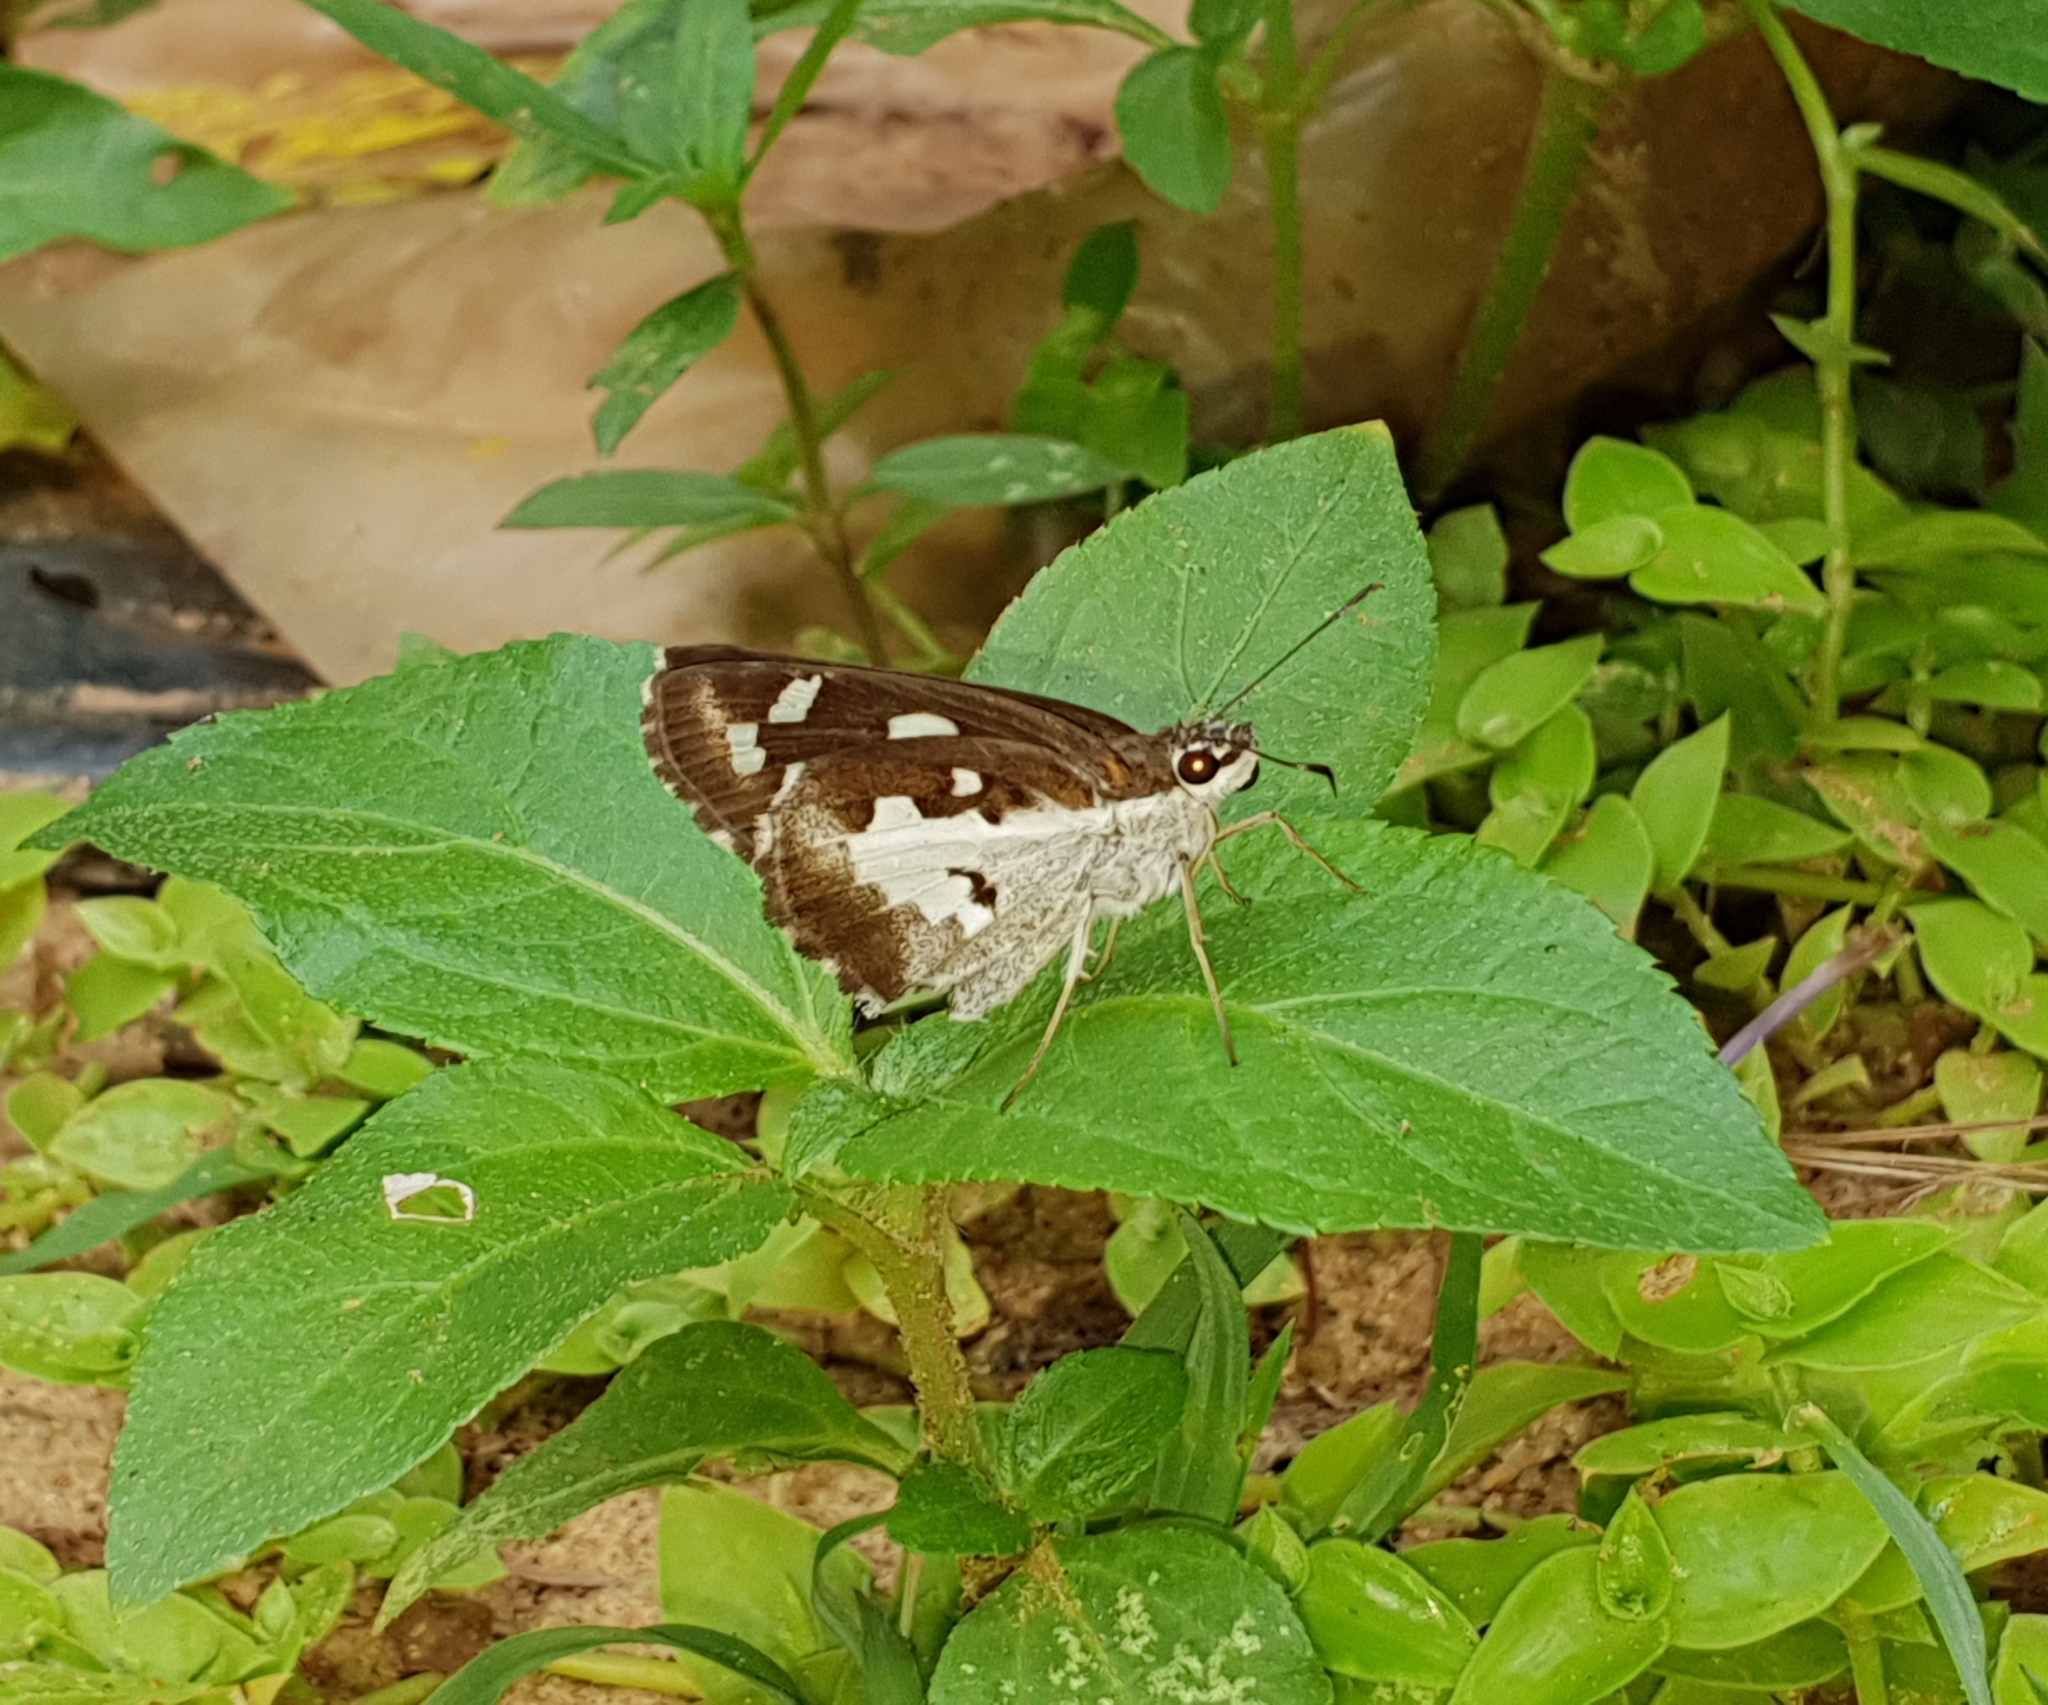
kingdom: Animalia
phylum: Arthropoda
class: Insecta
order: Lepidoptera
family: Hesperiidae
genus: Udaspes
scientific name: Udaspes folus
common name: Grass demon
